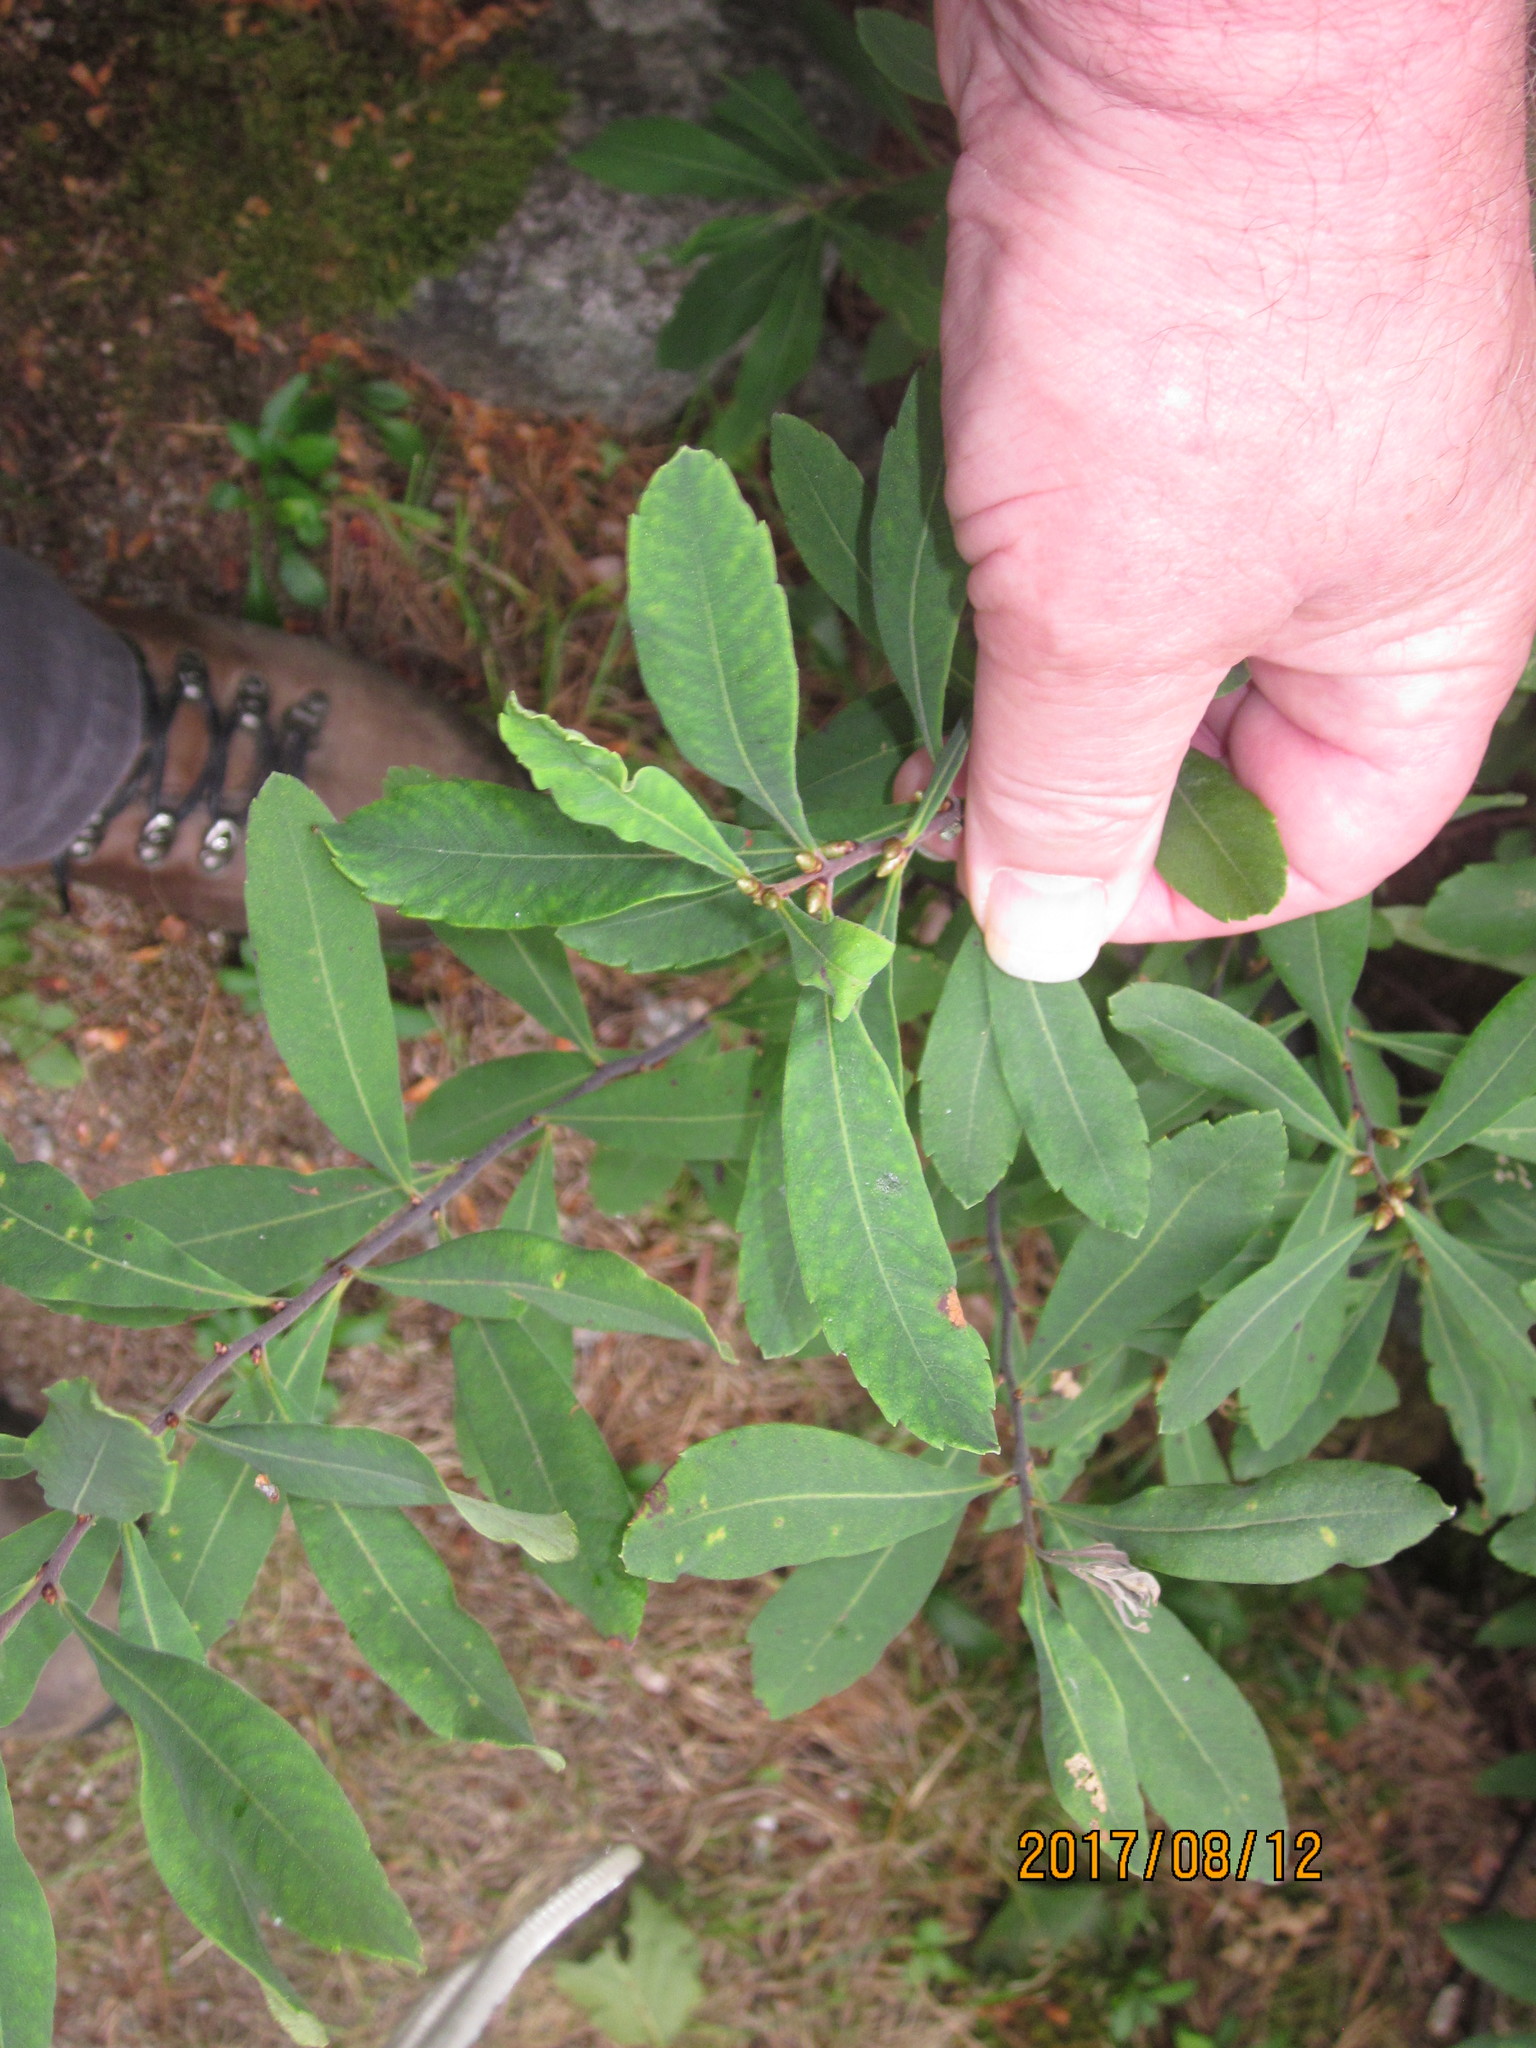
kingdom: Plantae
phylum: Tracheophyta
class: Magnoliopsida
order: Fagales
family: Myricaceae
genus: Myrica
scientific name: Myrica gale
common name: Sweet gale
